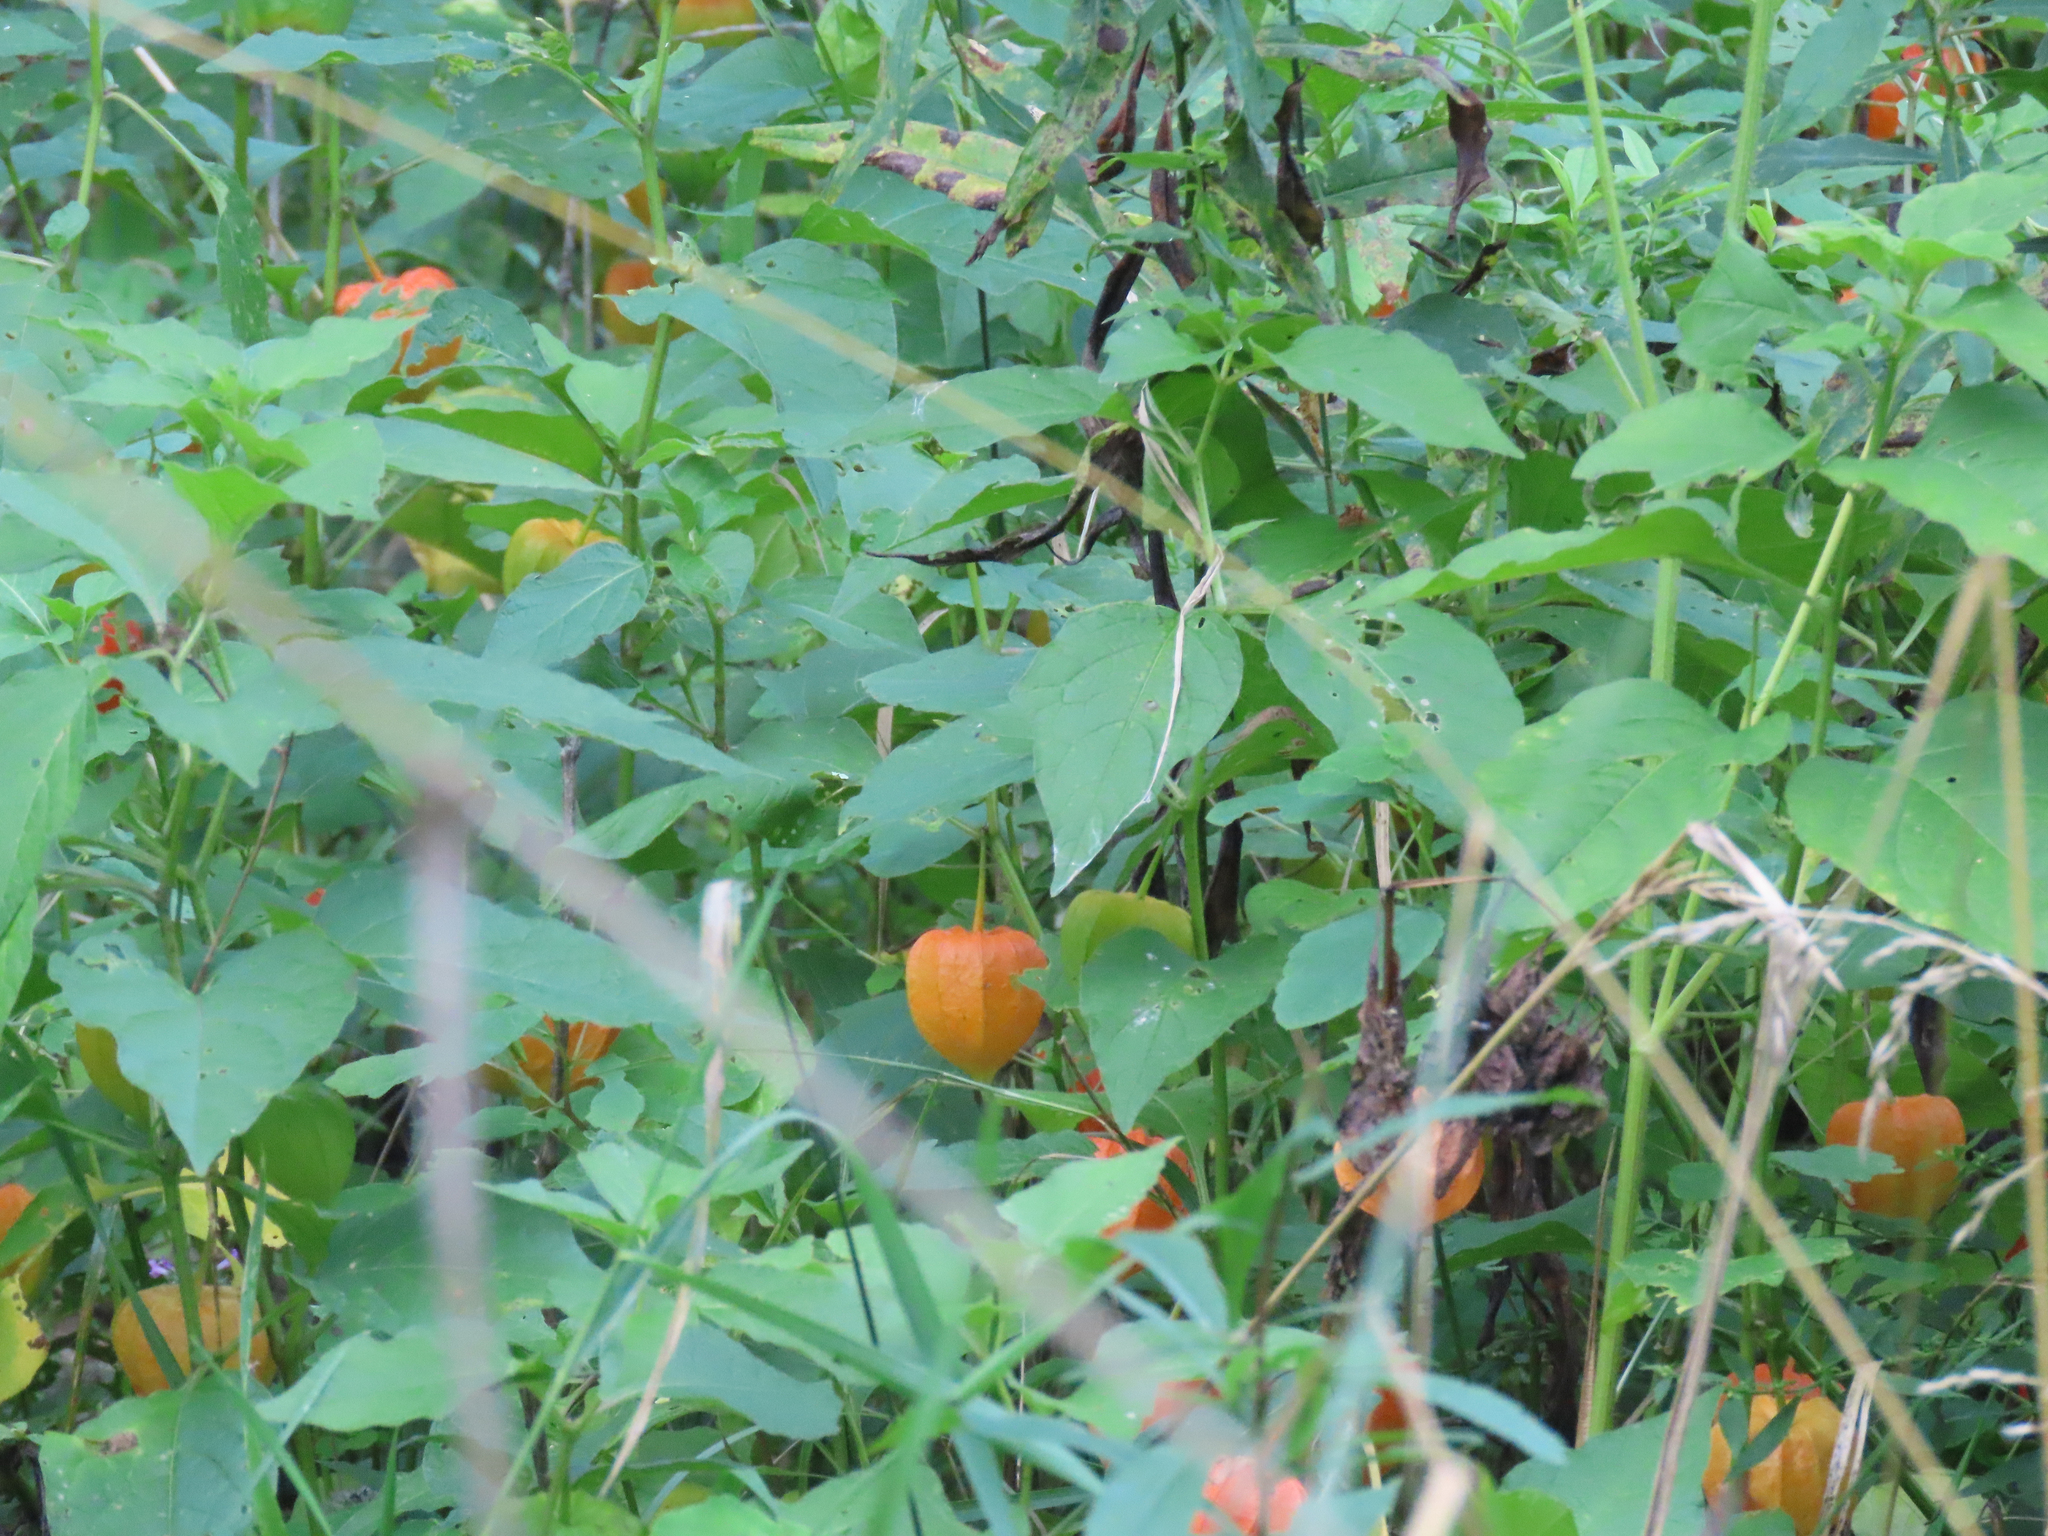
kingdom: Plantae
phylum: Tracheophyta
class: Magnoliopsida
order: Solanales
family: Solanaceae
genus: Alkekengi
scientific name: Alkekengi officinarum
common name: Japanese-lantern
